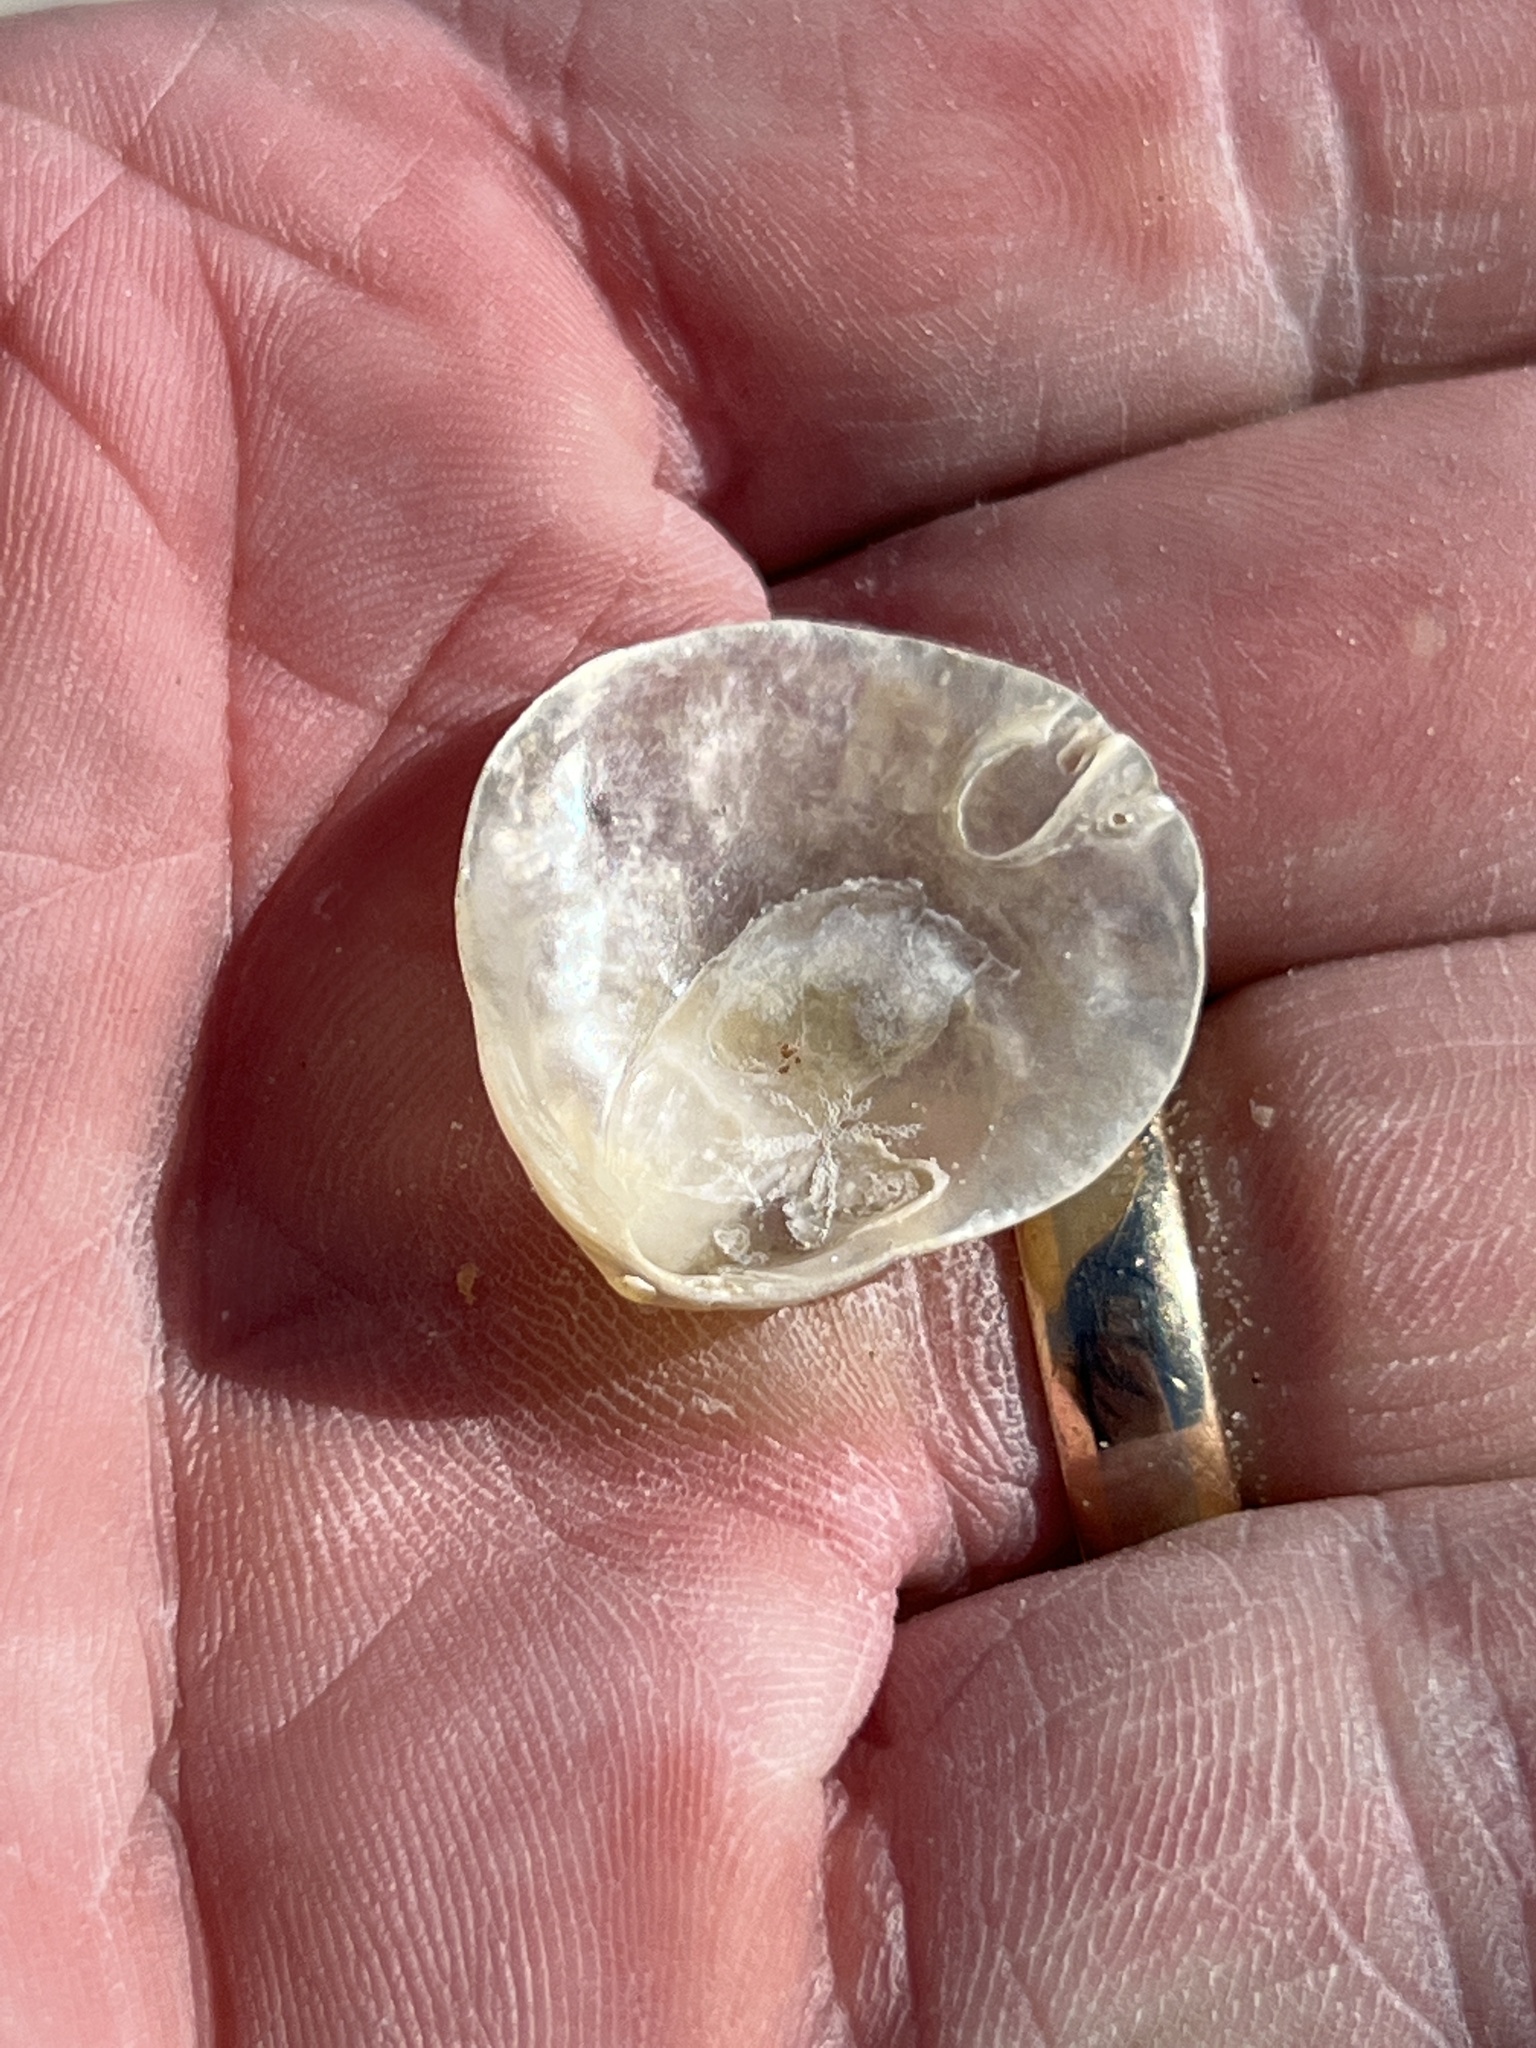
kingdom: Animalia
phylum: Mollusca
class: Bivalvia
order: Pectinida
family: Anomiidae
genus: Anomia
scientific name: Anomia simplex
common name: Common jingle shell
